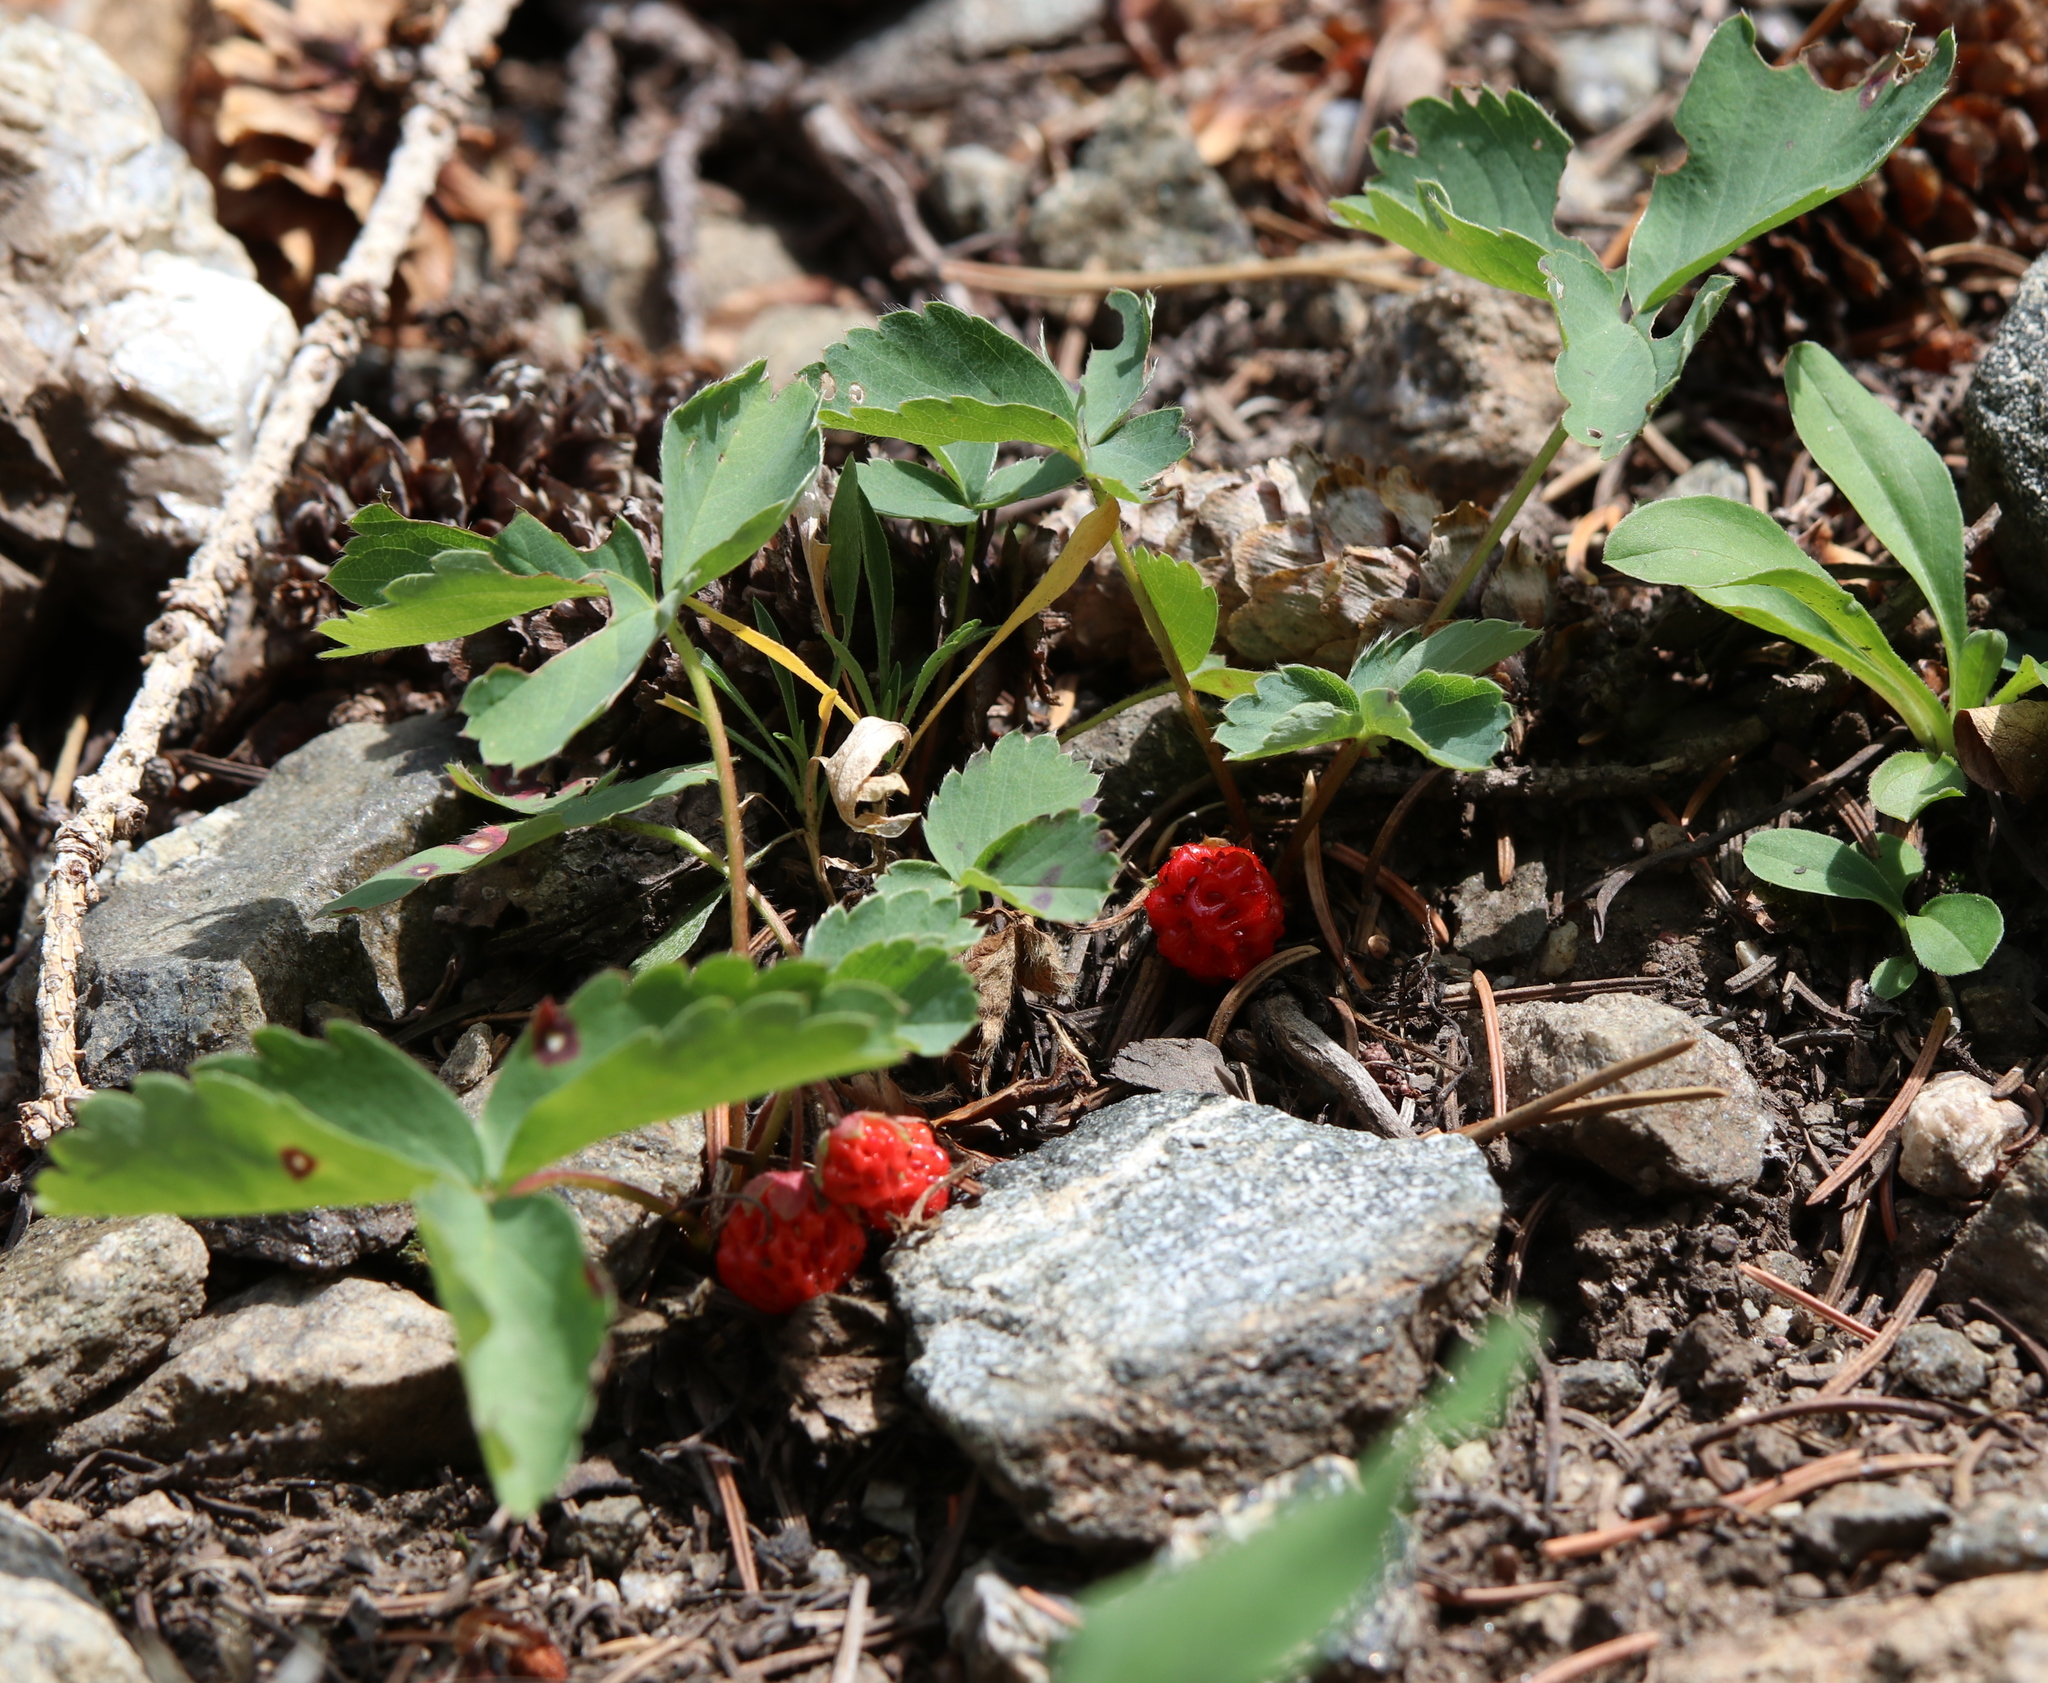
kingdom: Plantae
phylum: Tracheophyta
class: Magnoliopsida
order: Rosales
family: Rosaceae
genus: Fragaria
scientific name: Fragaria virginiana
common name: Thickleaved wild strawberry
